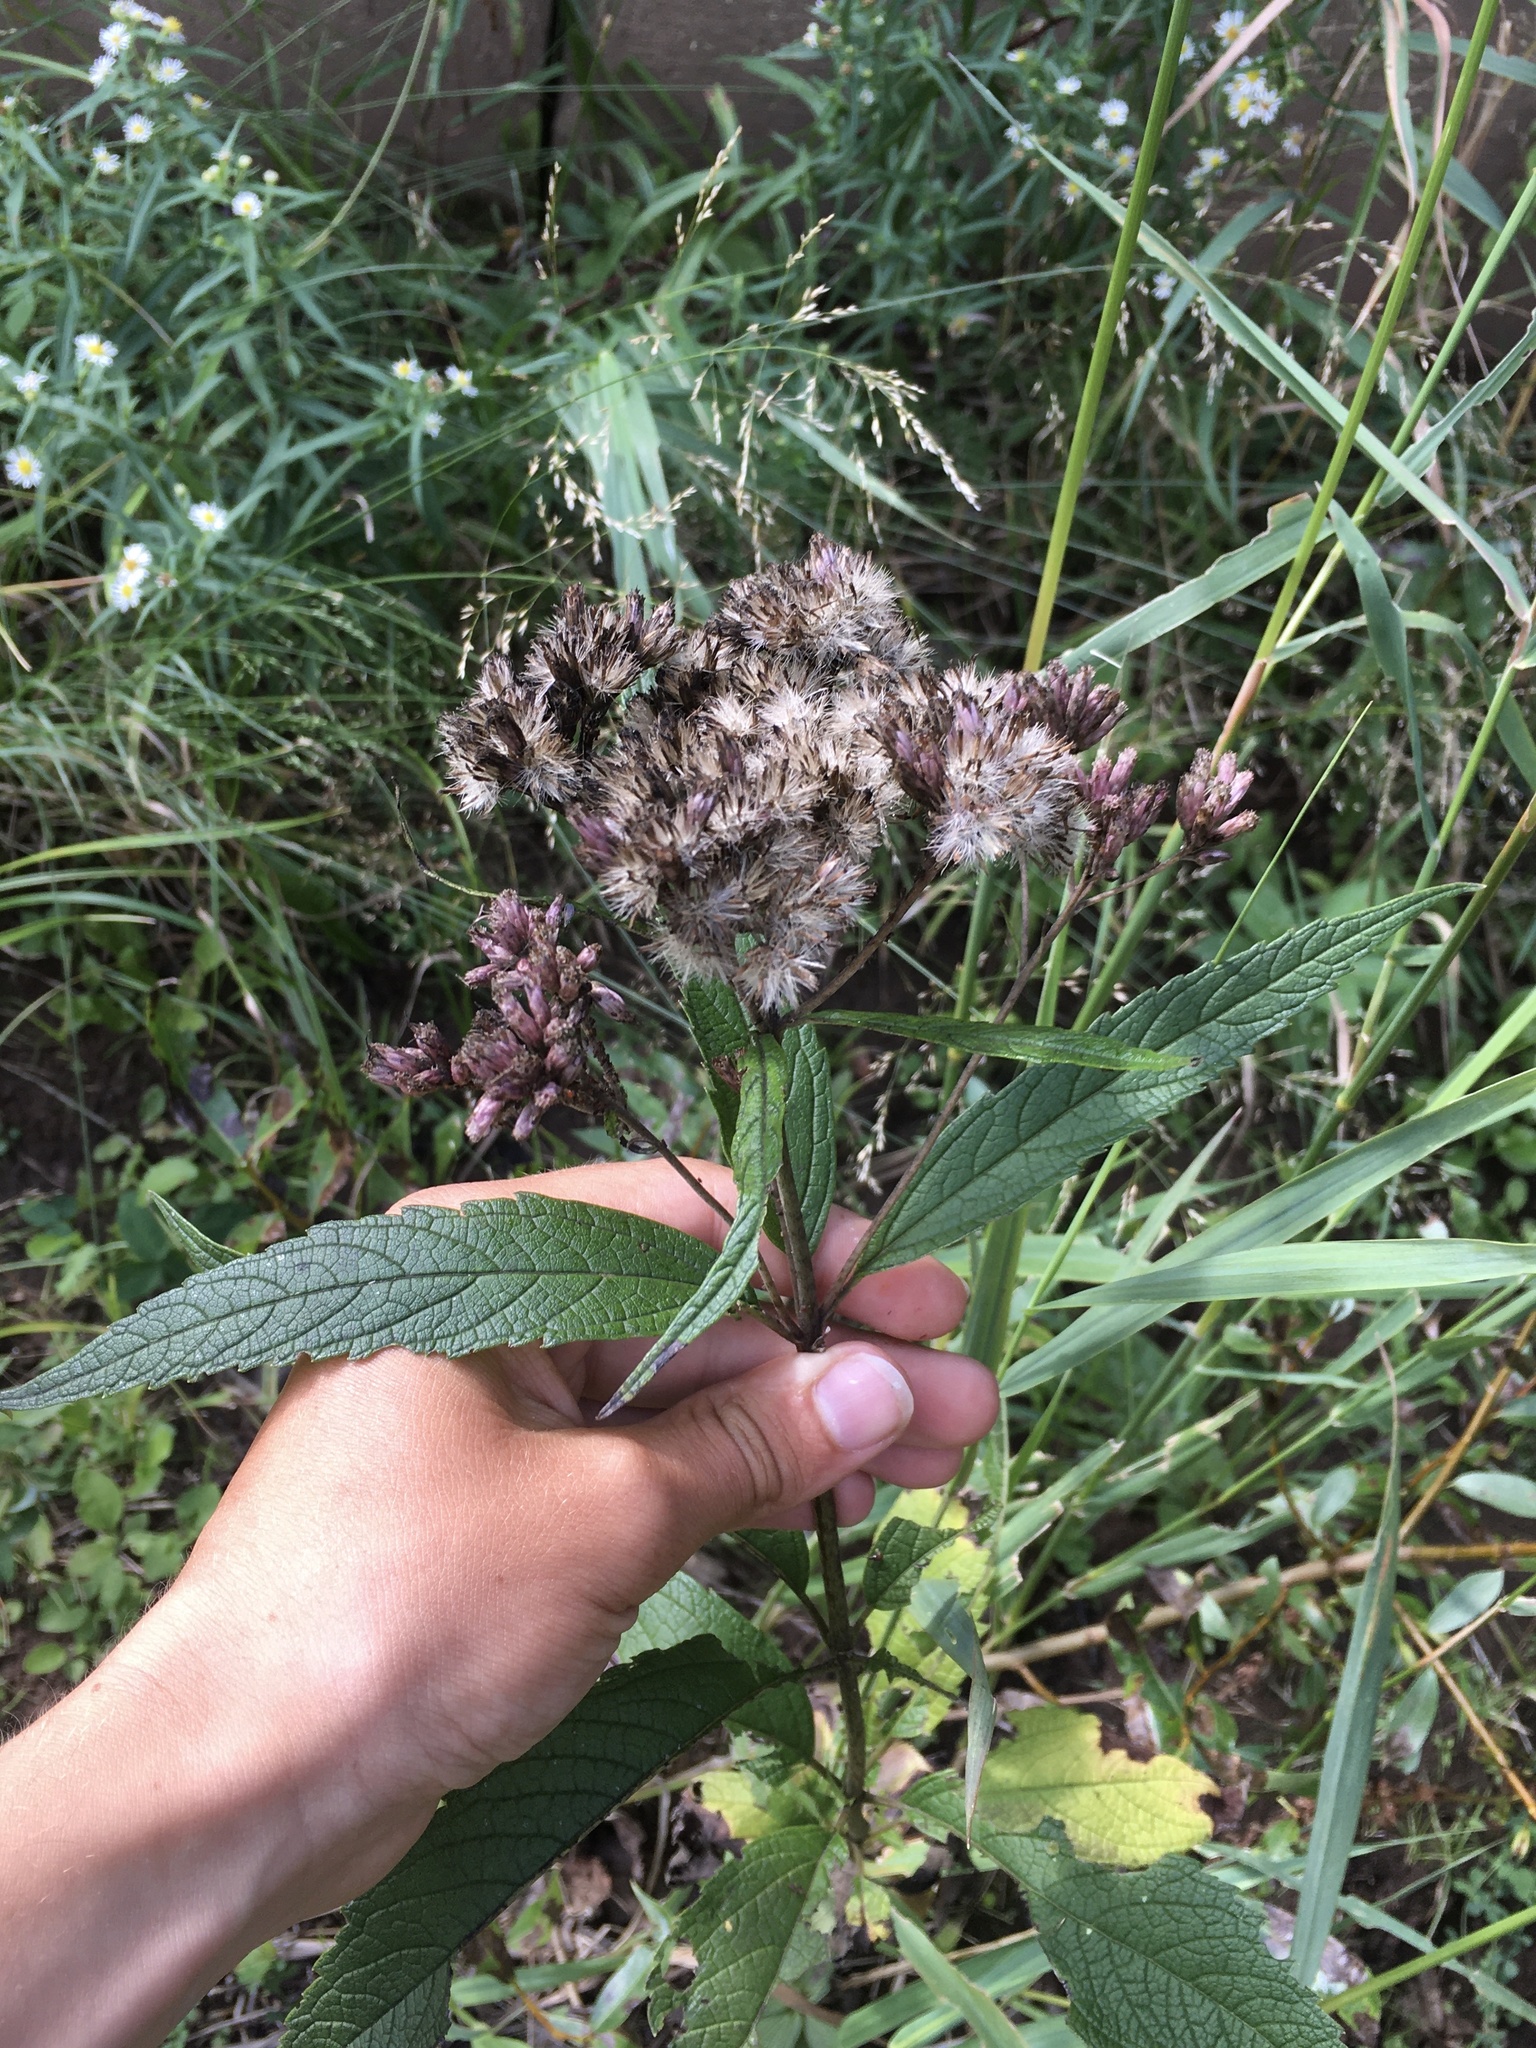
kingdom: Plantae
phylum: Tracheophyta
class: Magnoliopsida
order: Asterales
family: Asteraceae
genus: Eutrochium
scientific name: Eutrochium maculatum
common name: Spotted joe pye weed
